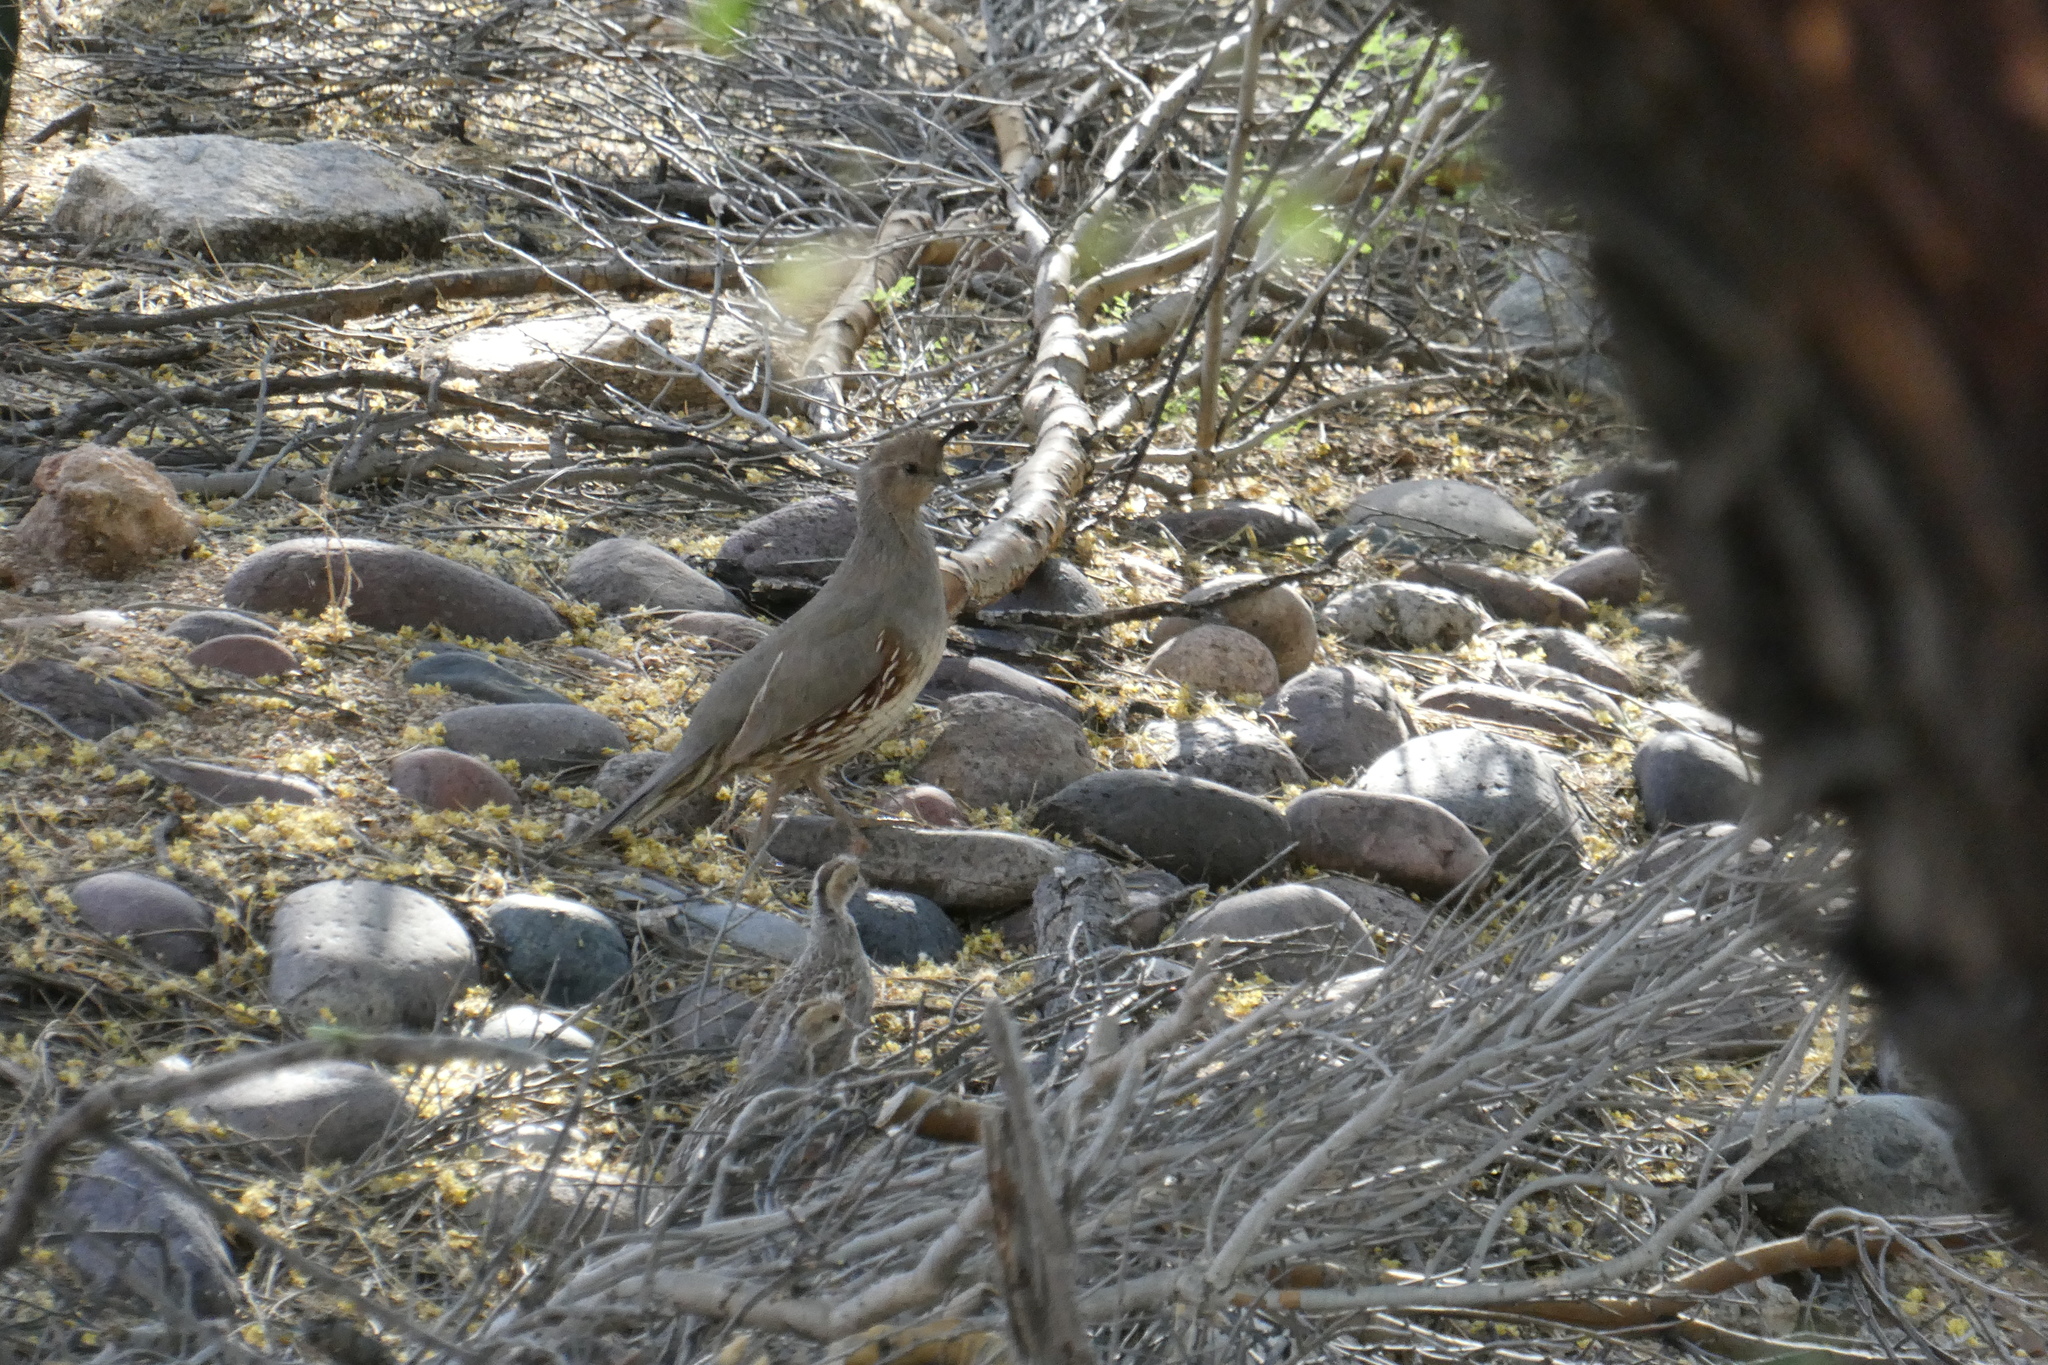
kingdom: Animalia
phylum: Chordata
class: Aves
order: Galliformes
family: Odontophoridae
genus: Callipepla
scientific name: Callipepla gambelii
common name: Gambel's quail
